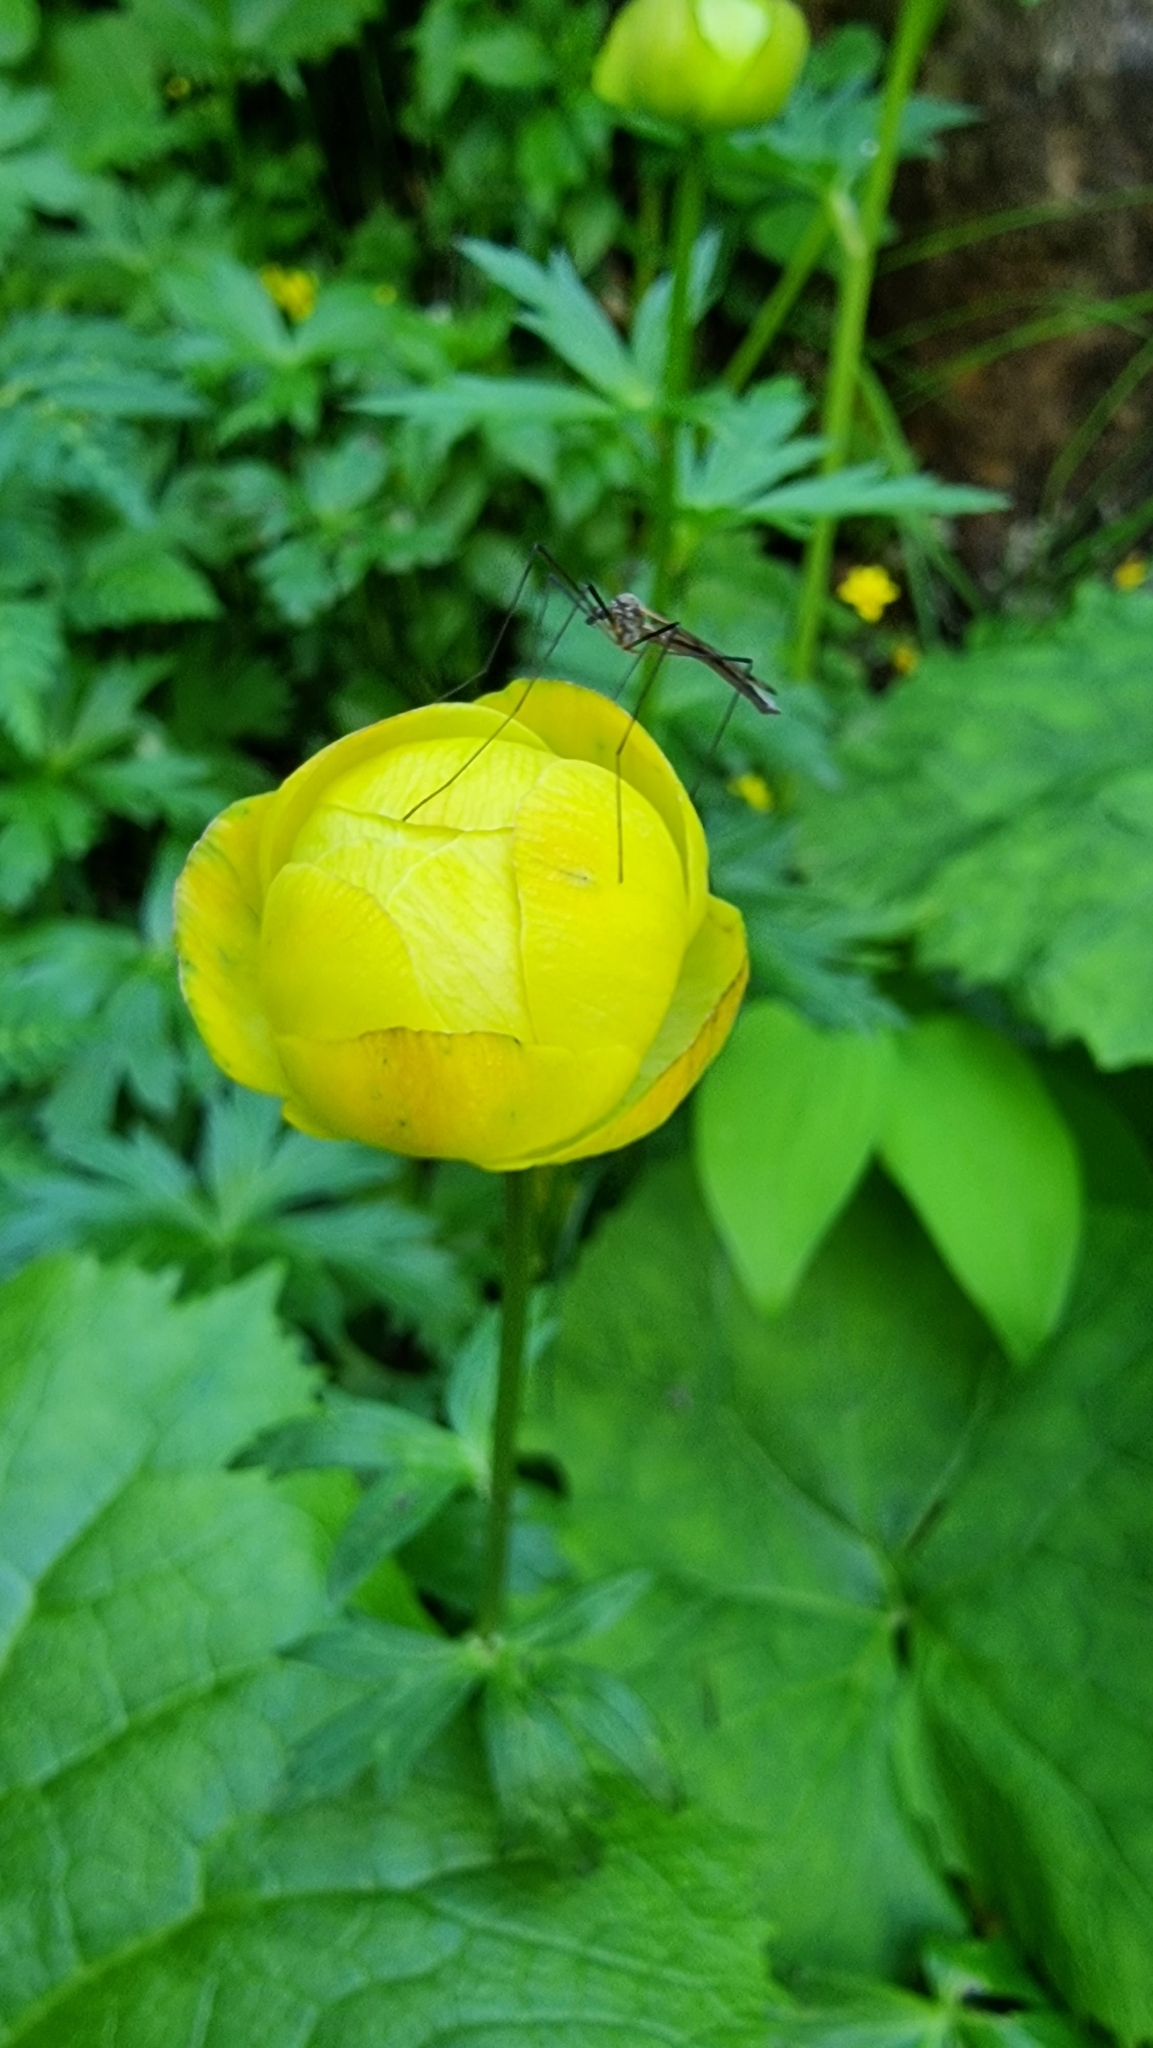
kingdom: Plantae
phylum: Tracheophyta
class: Magnoliopsida
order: Ranunculales
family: Ranunculaceae
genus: Trollius
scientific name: Trollius europaeus
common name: European globeflower
